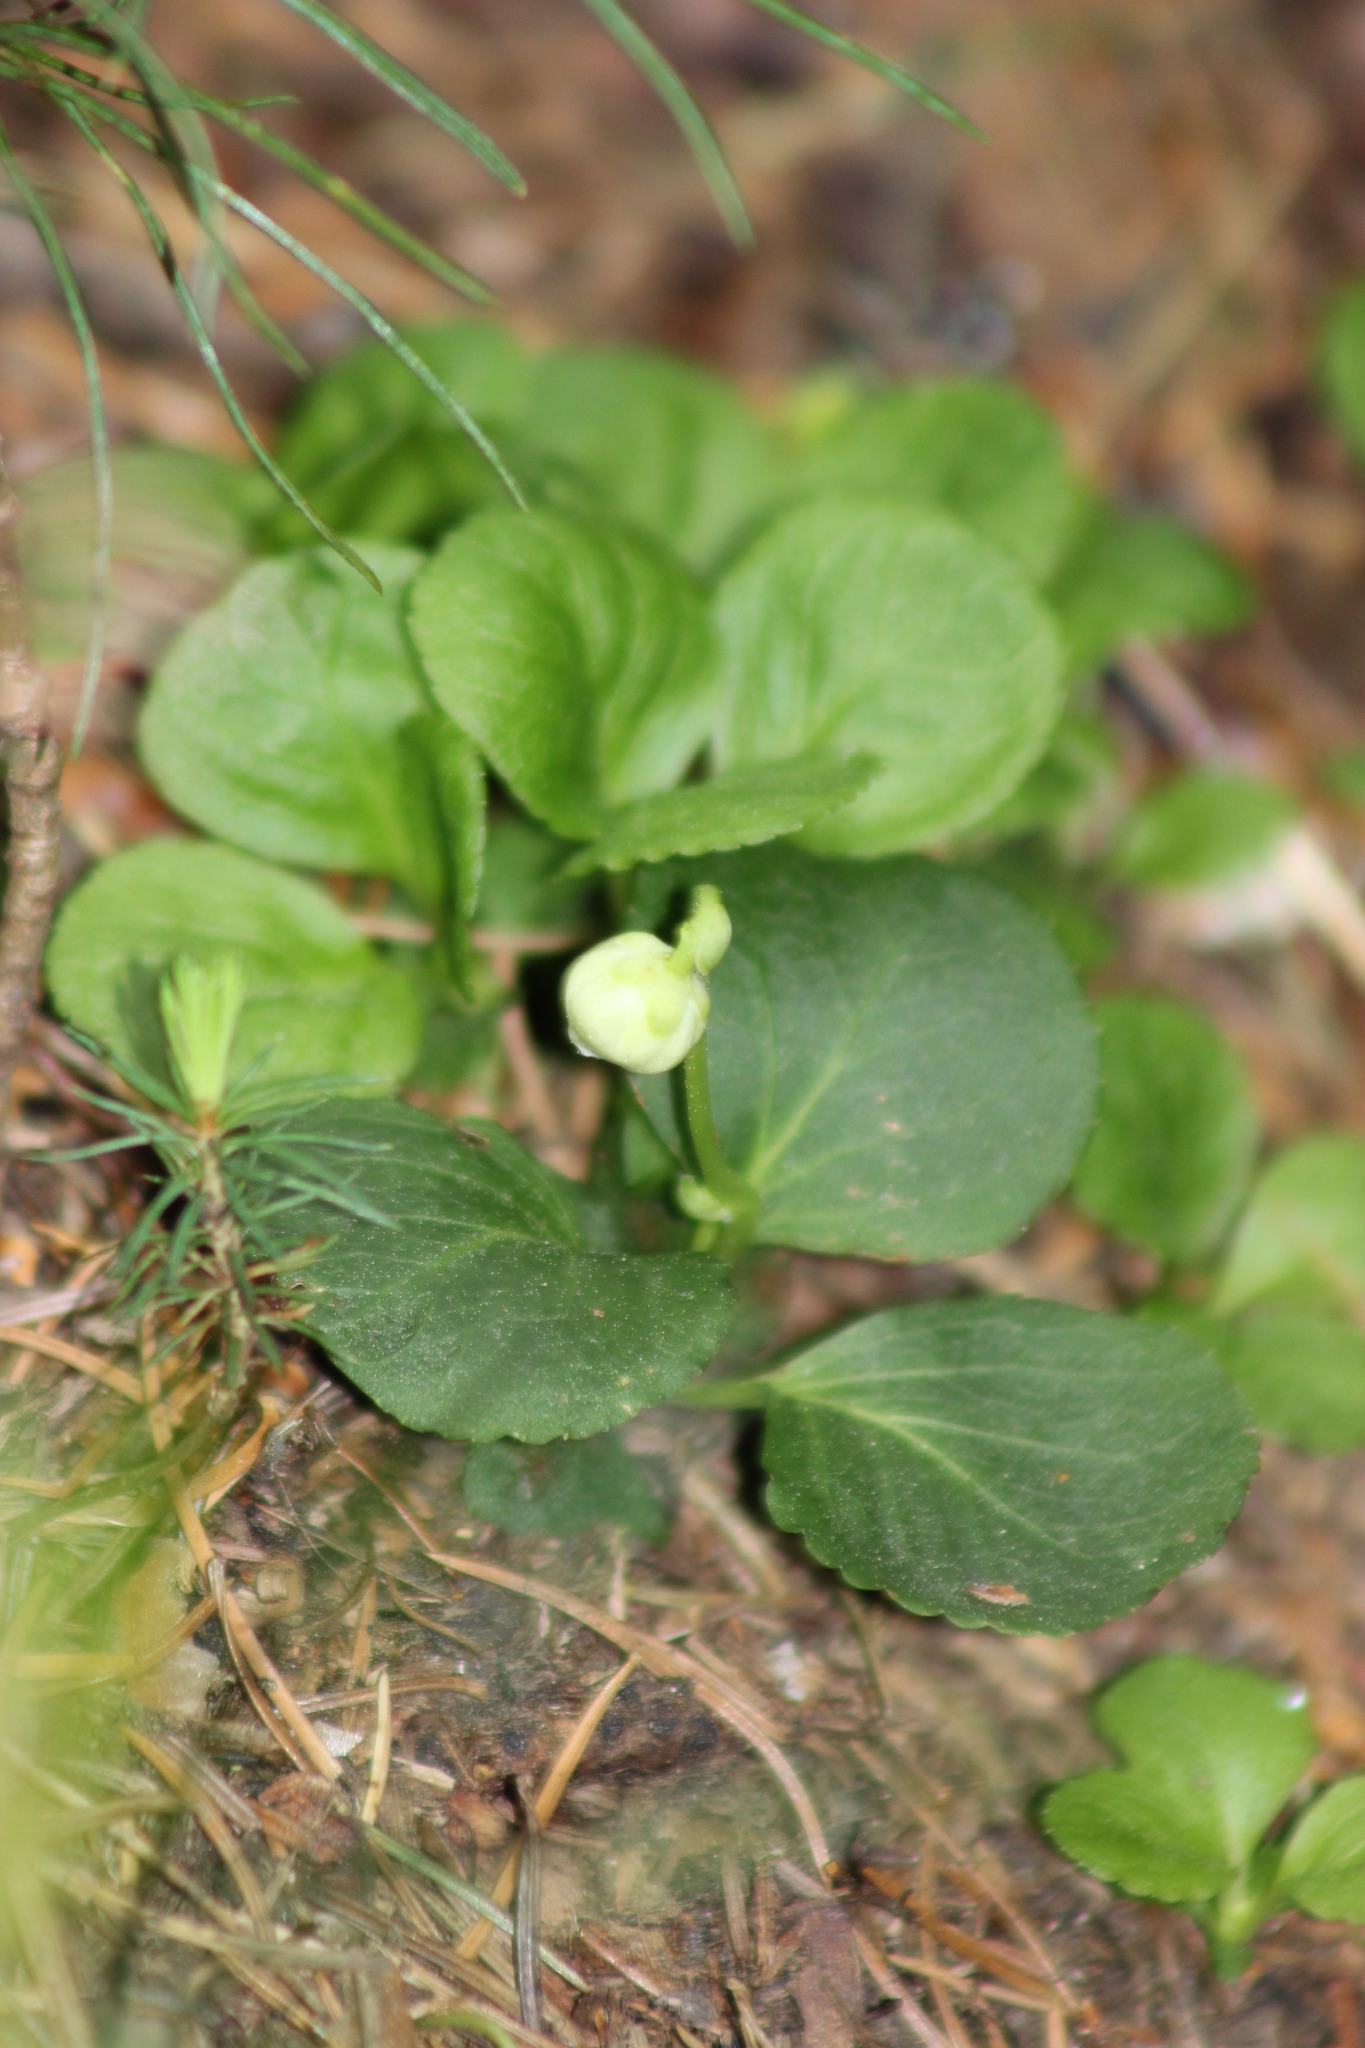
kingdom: Plantae
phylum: Tracheophyta
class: Magnoliopsida
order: Ericales
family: Ericaceae
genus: Moneses
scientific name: Moneses uniflora
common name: One-flowered wintergreen
